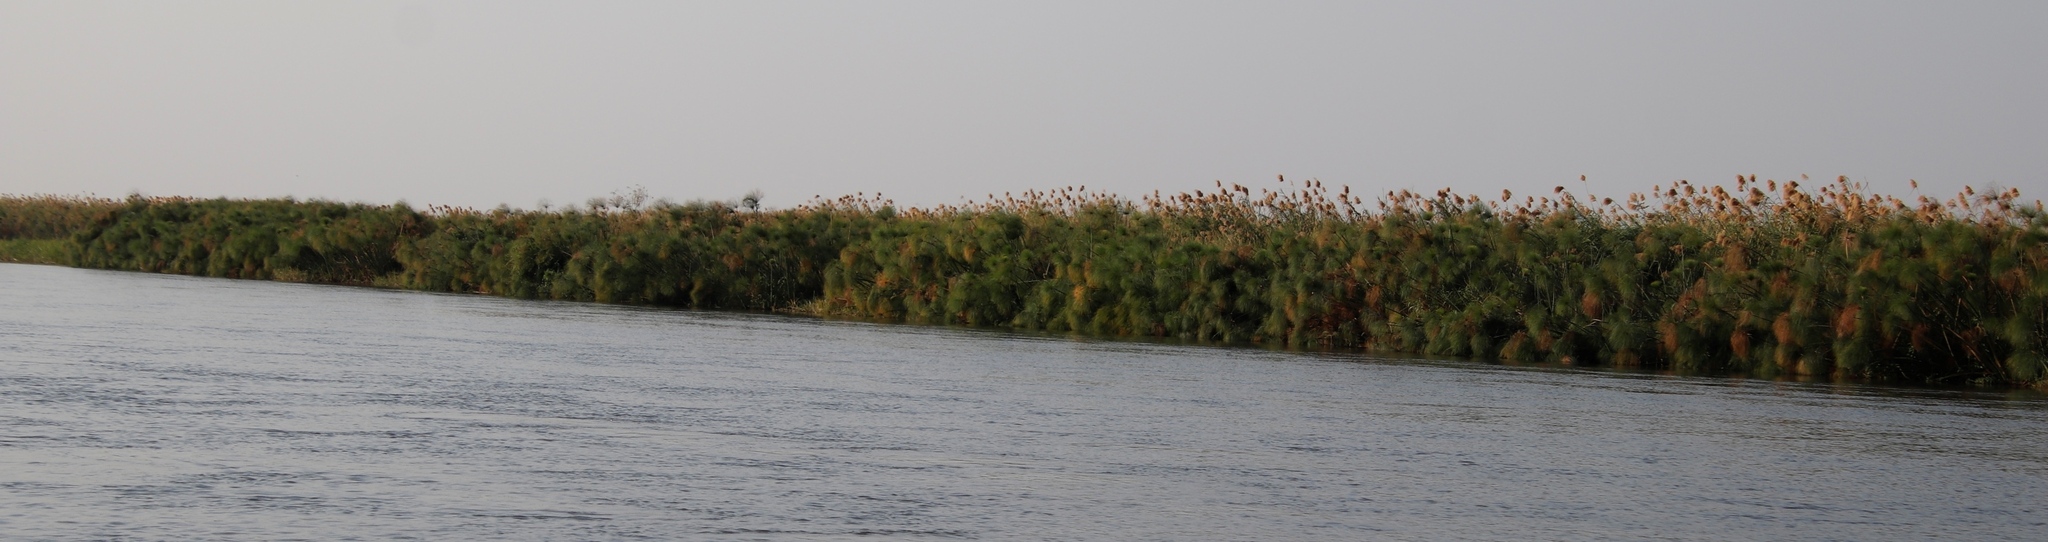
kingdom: Plantae
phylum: Tracheophyta
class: Liliopsida
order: Poales
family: Poaceae
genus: Phragmites
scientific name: Phragmites australis
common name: Common reed
